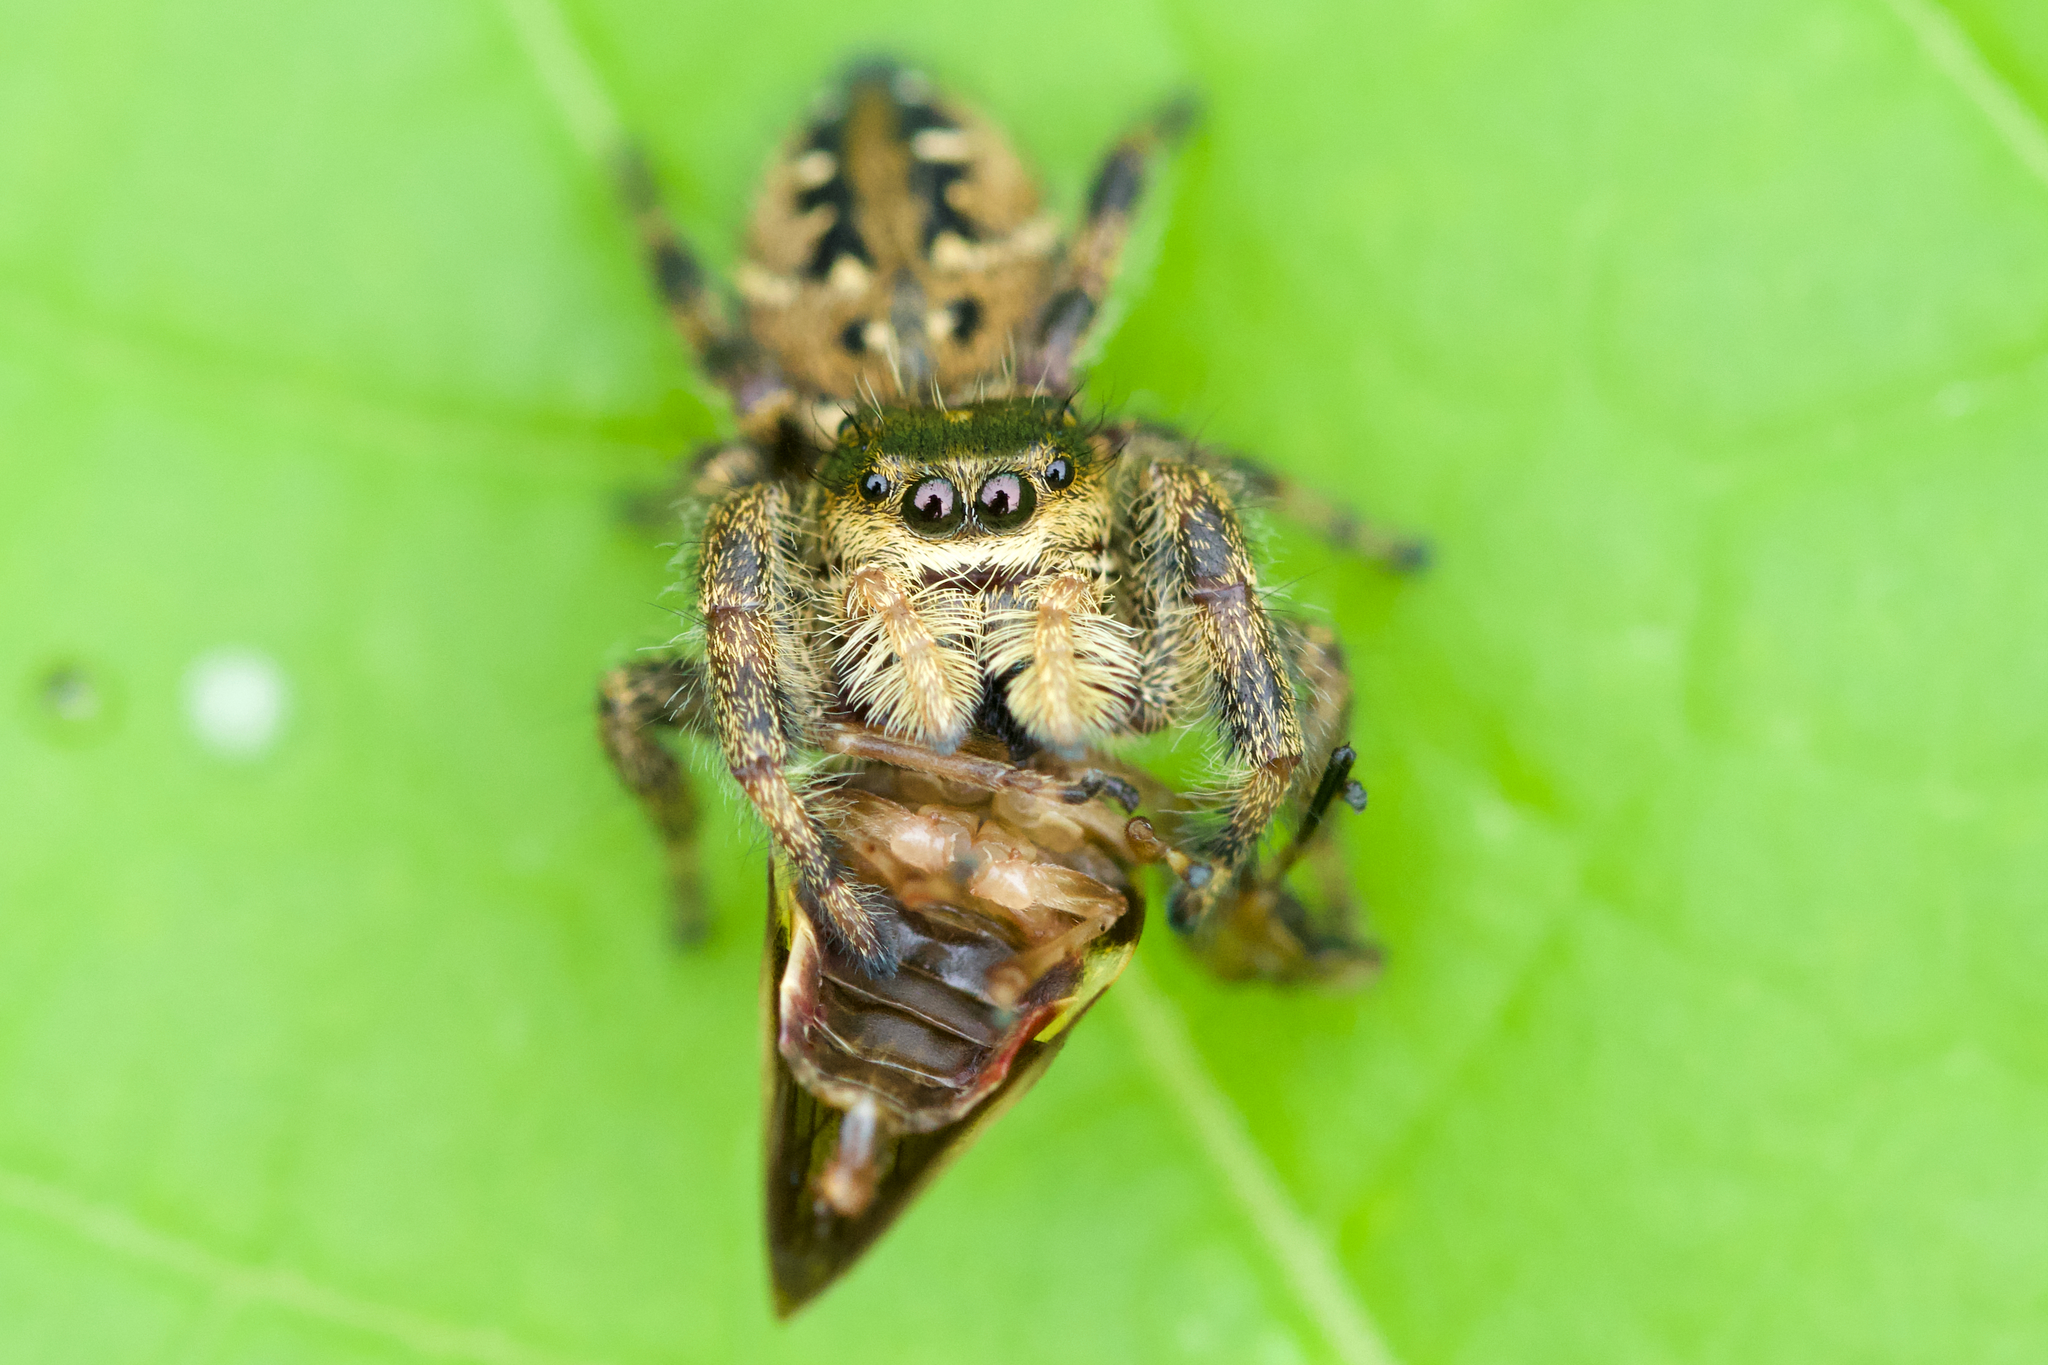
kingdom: Animalia
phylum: Arthropoda
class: Arachnida
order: Araneae
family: Salticidae
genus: Phidippus
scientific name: Phidippus clarus
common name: Brilliant jumping spider
